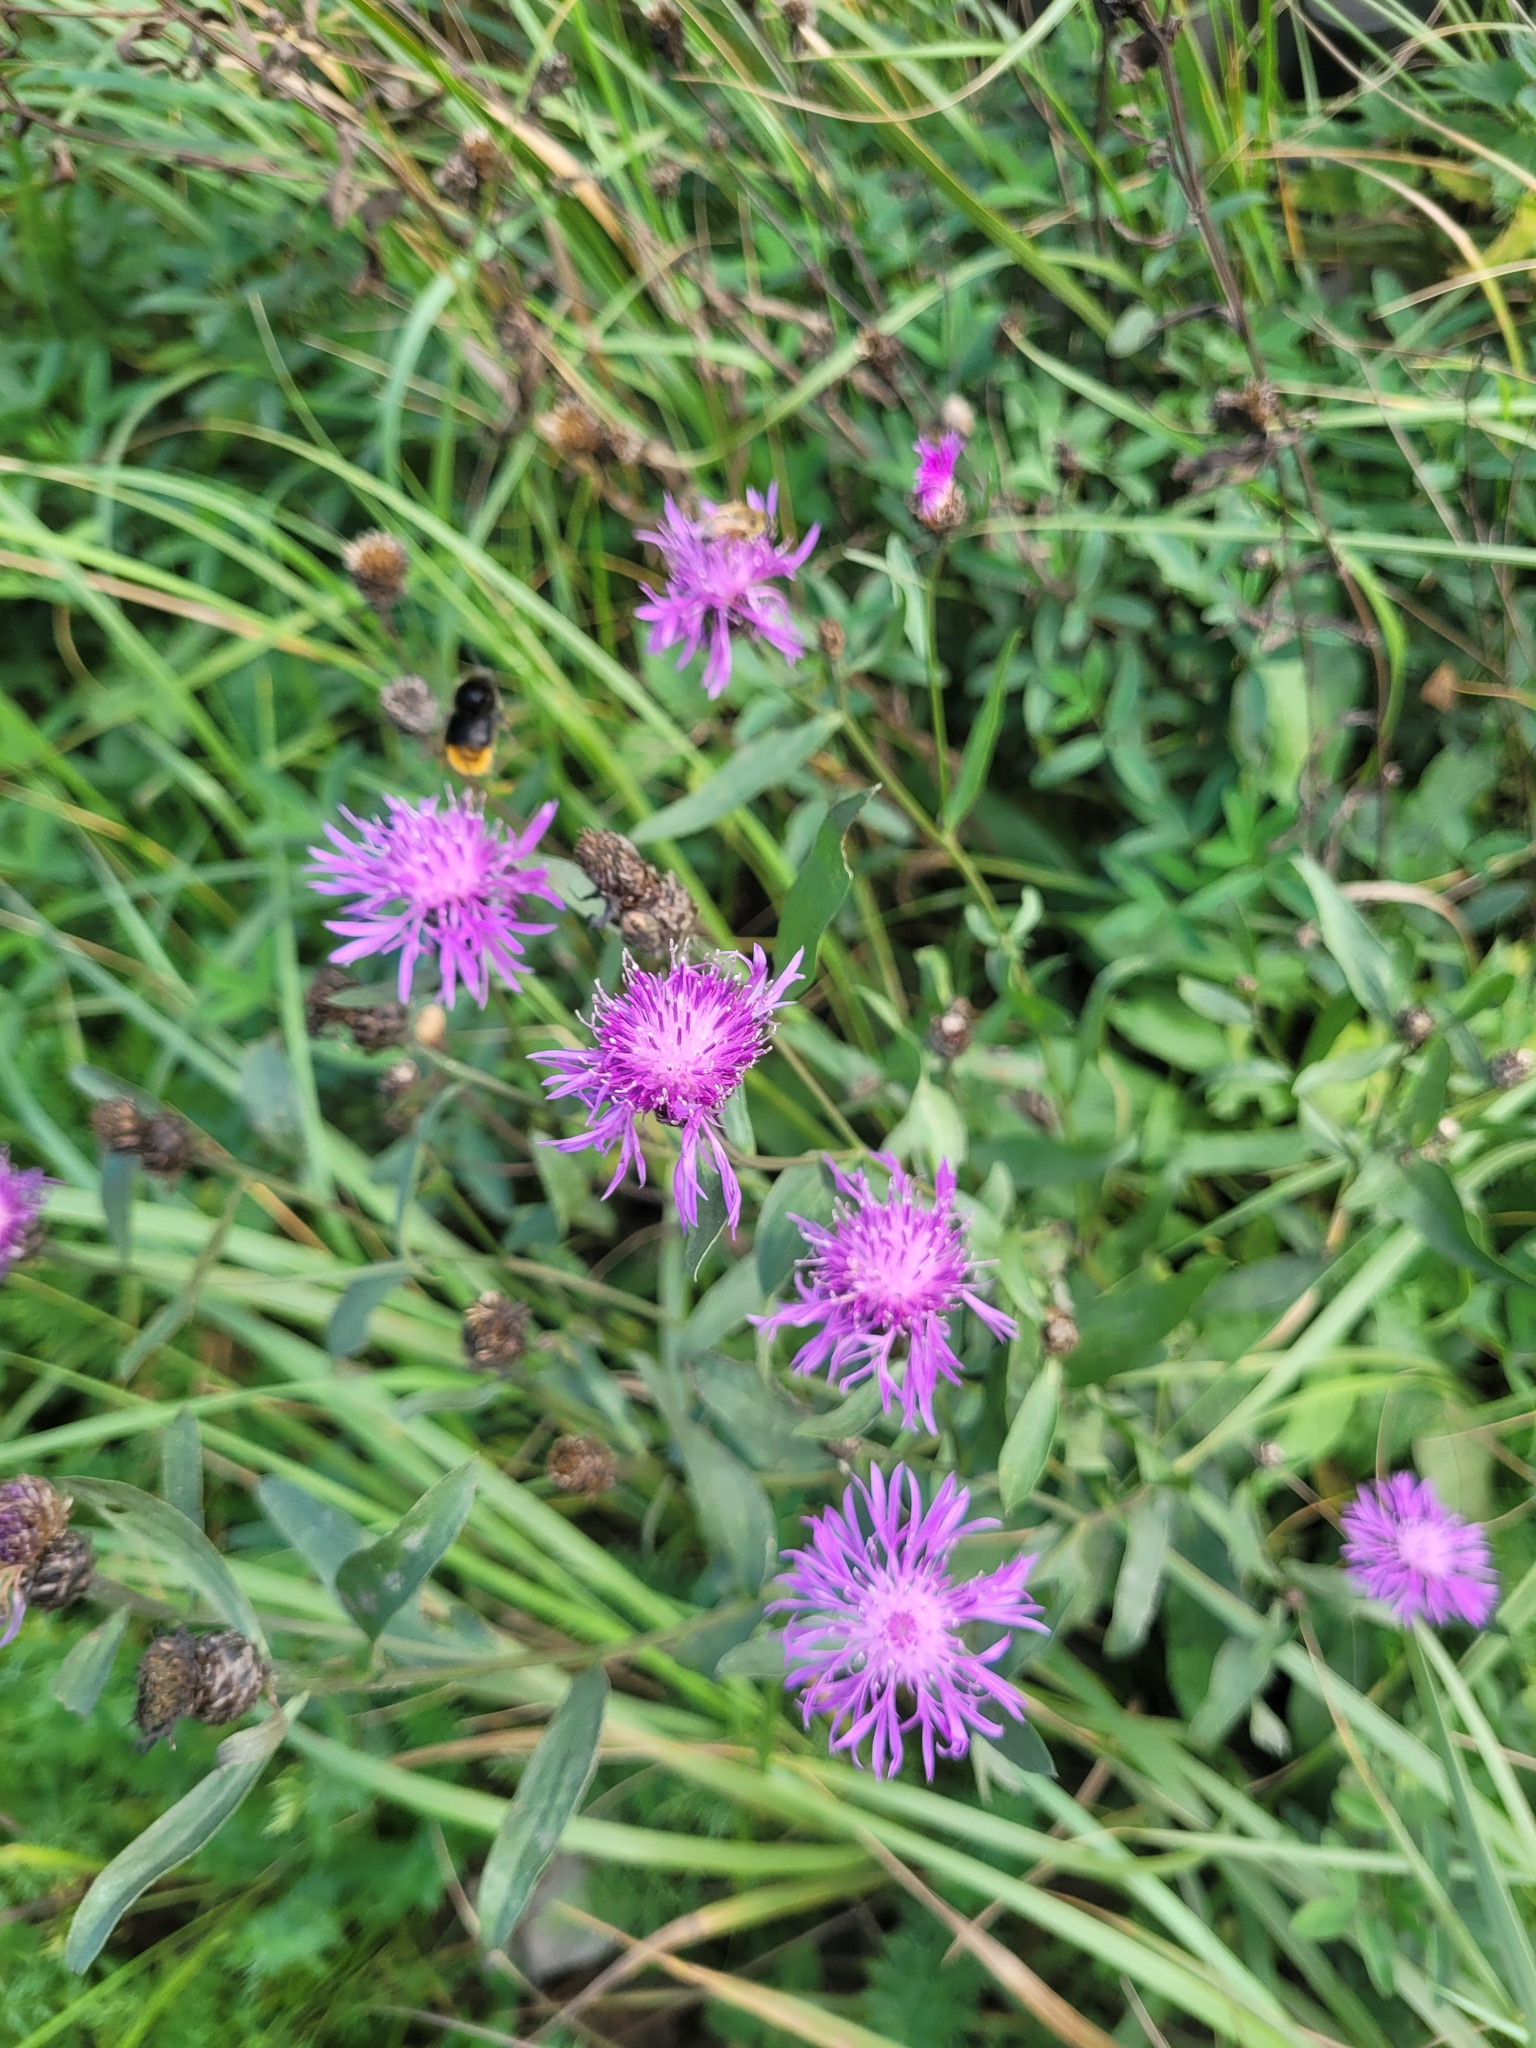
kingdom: Plantae
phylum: Tracheophyta
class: Magnoliopsida
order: Asterales
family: Asteraceae
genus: Centaurea
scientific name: Centaurea jacea
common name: Brown knapweed
